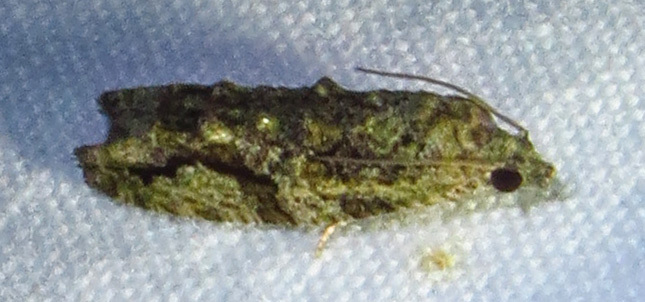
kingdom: Animalia
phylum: Arthropoda
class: Insecta
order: Lepidoptera
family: Tortricidae
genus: Proteoteras
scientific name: Proteoteras aesculana
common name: Maple twig borer moth
